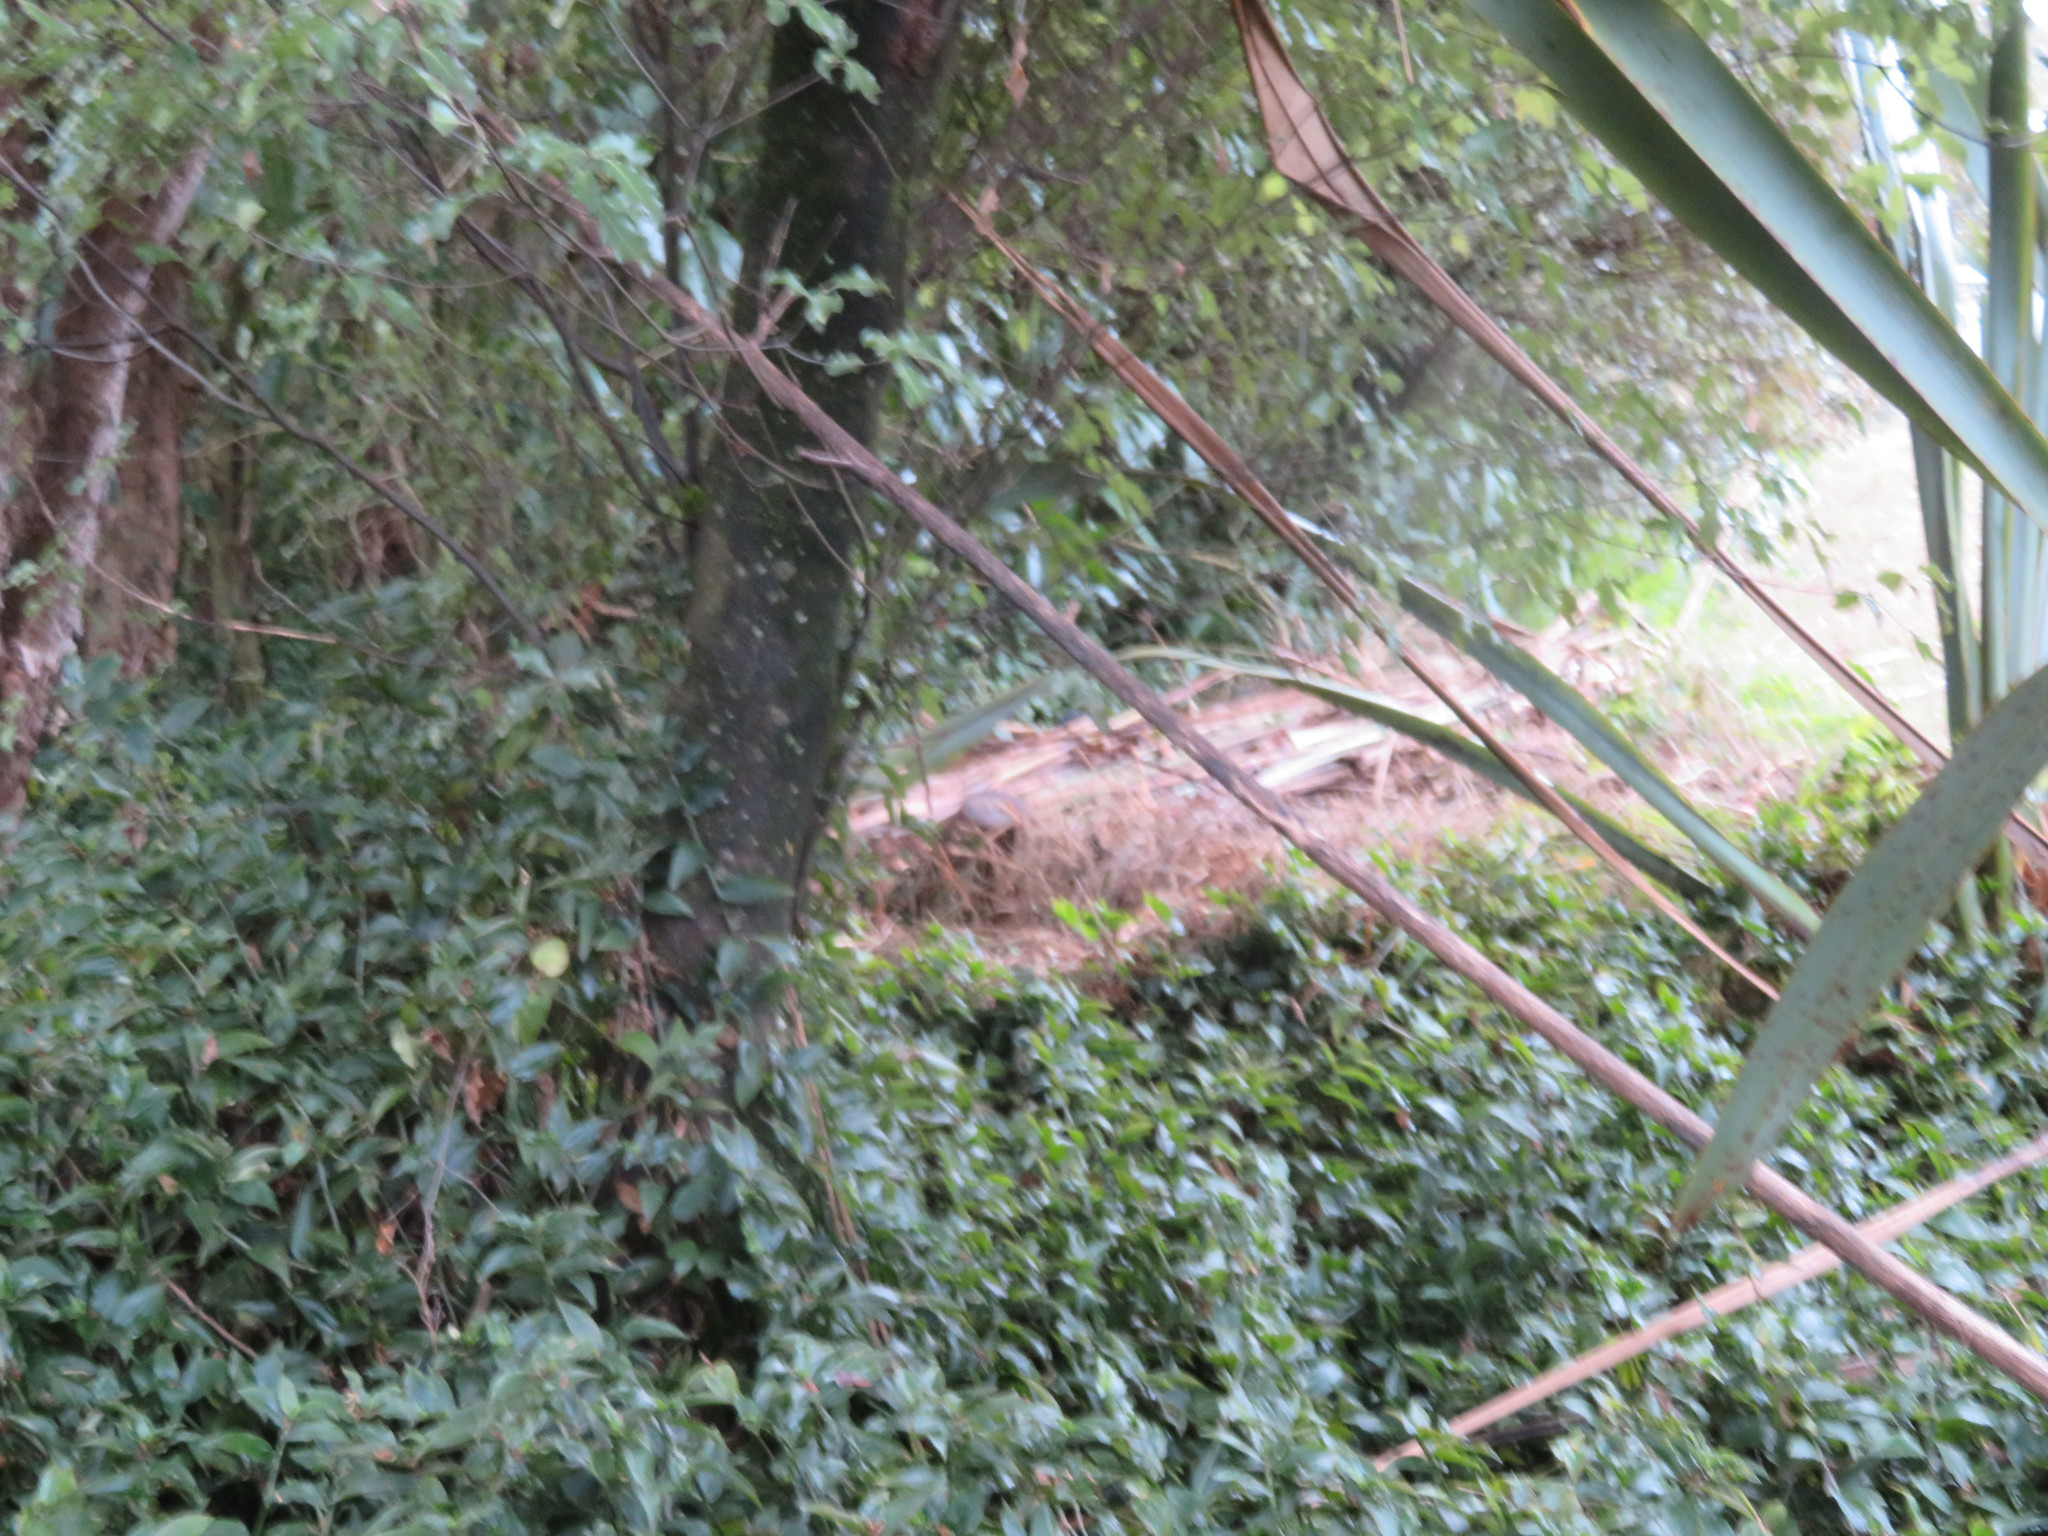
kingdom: Plantae
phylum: Tracheophyta
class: Magnoliopsida
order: Apiales
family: Pittosporaceae
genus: Pittosporum
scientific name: Pittosporum tenuifolium
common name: Kohuhu
